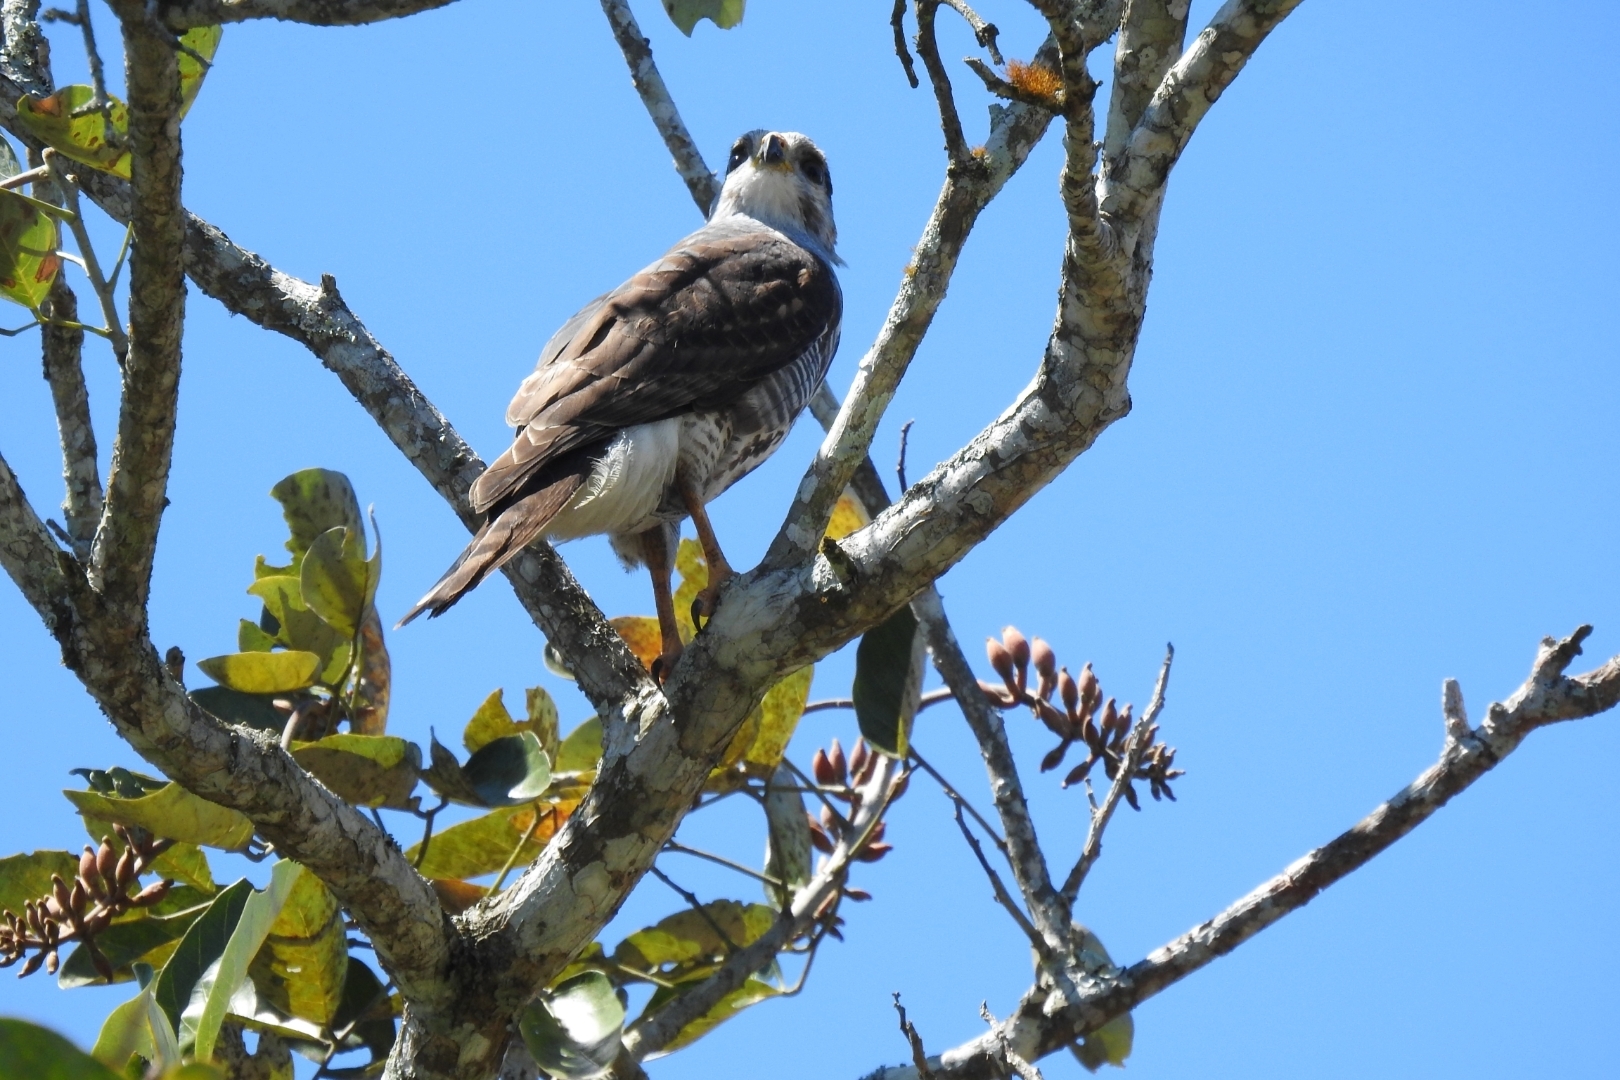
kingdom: Animalia
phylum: Chordata
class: Aves
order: Accipitriformes
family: Accipitridae
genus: Buteo
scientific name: Buteo nitidus
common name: Grey-lined hawk
